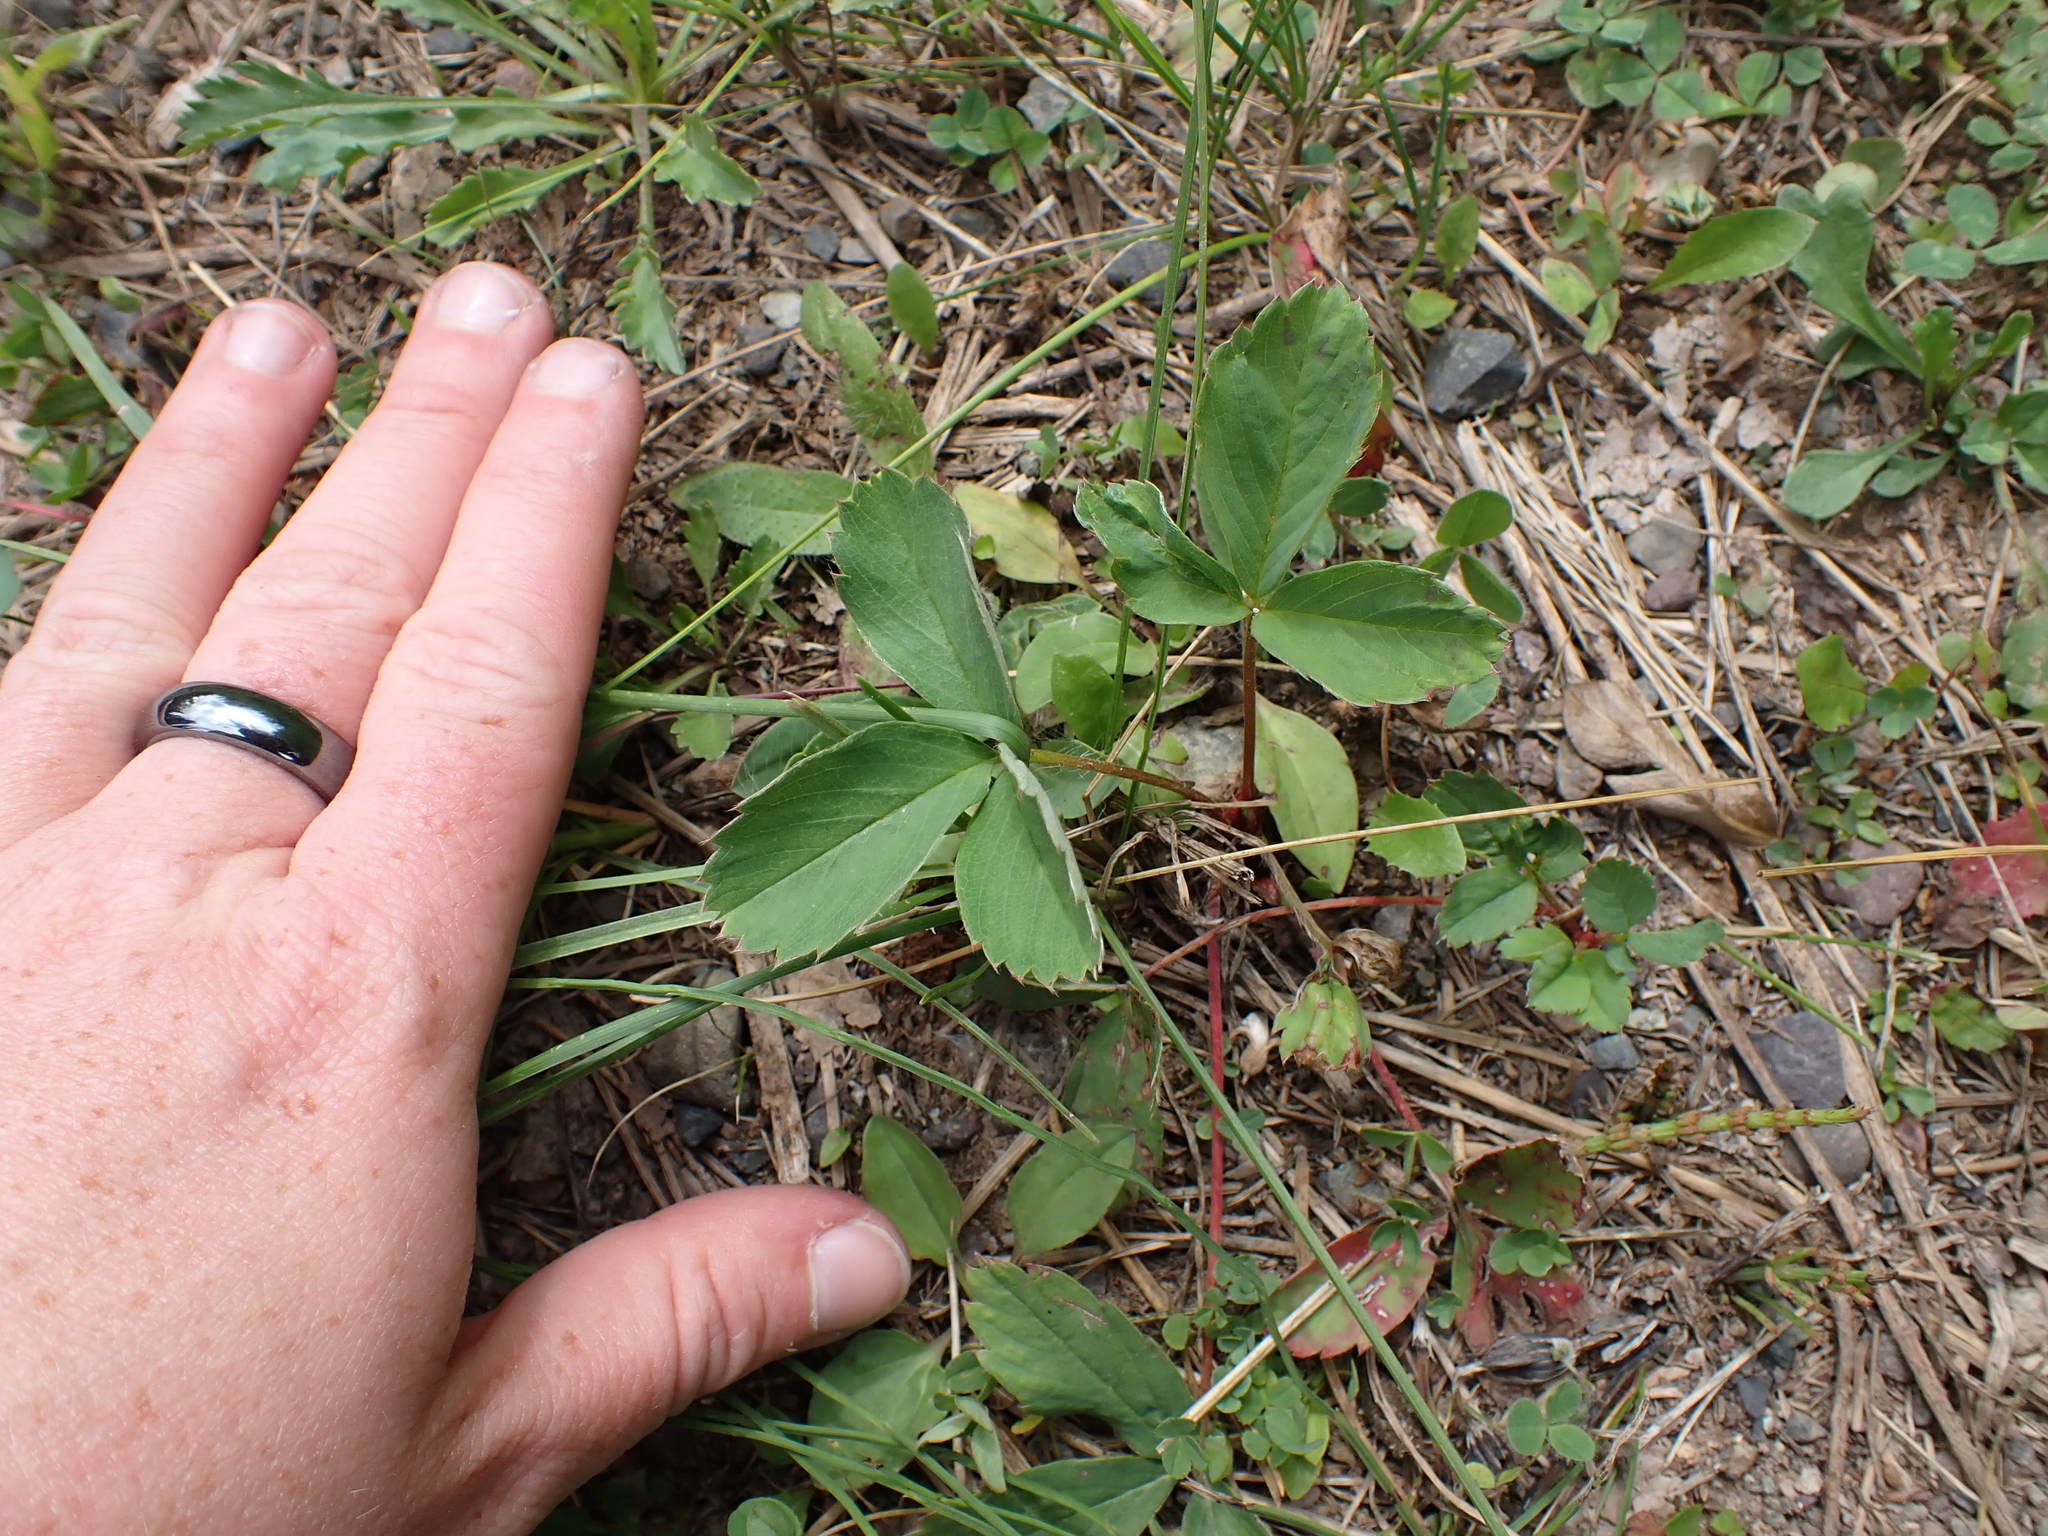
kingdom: Plantae
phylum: Tracheophyta
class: Magnoliopsida
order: Rosales
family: Rosaceae
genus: Fragaria
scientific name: Fragaria virginiana
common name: Thickleaved wild strawberry
